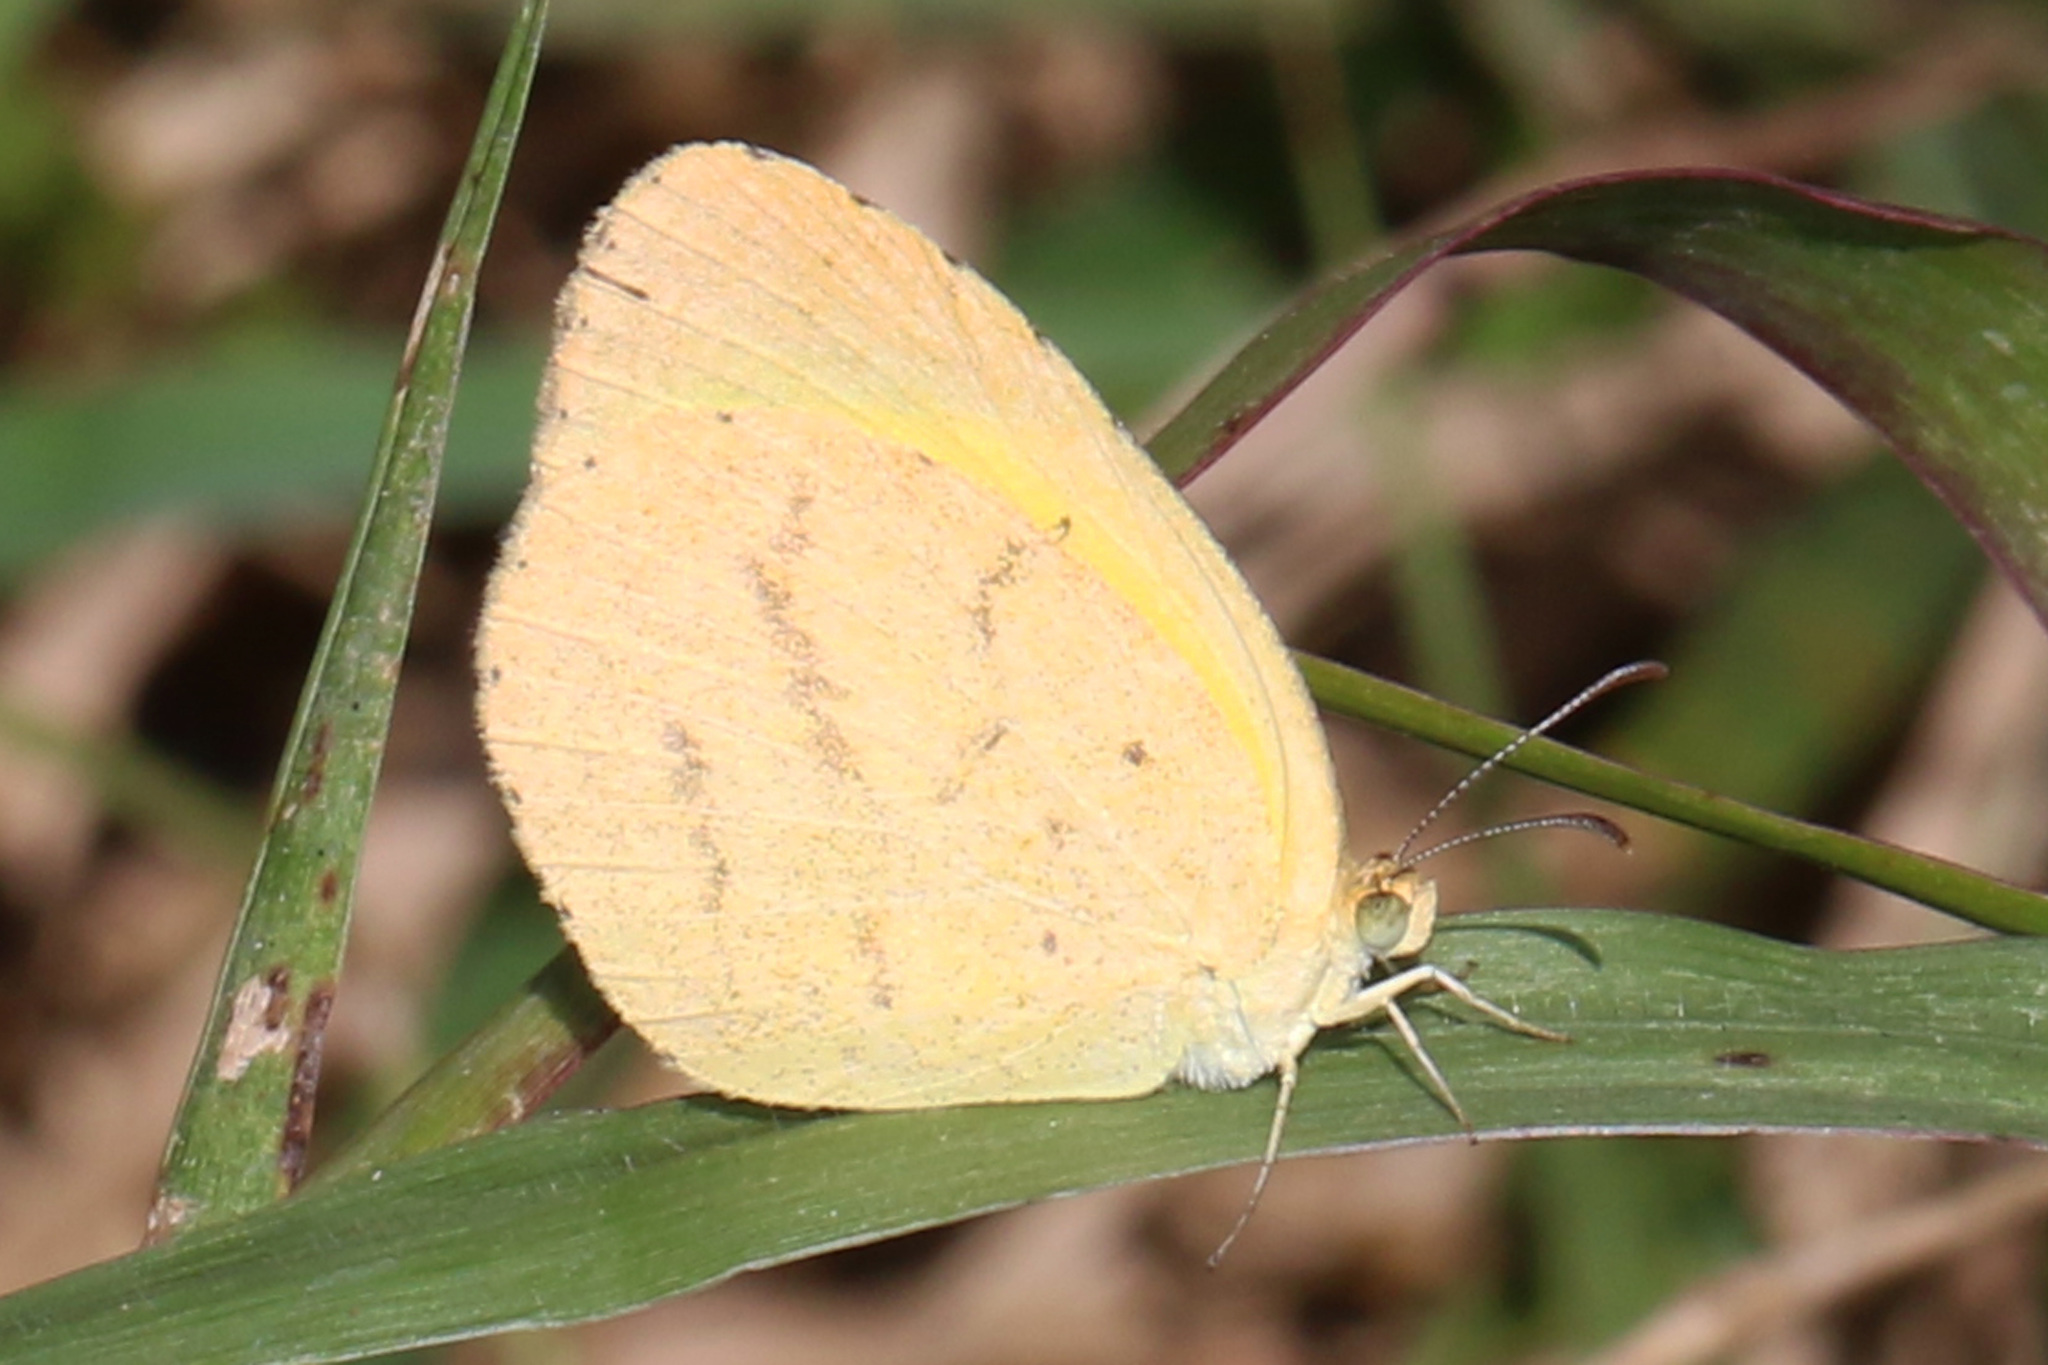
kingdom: Animalia
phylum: Arthropoda
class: Insecta
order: Lepidoptera
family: Pieridae
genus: Eurema
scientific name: Eurema brigitta
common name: Small grass yellow
